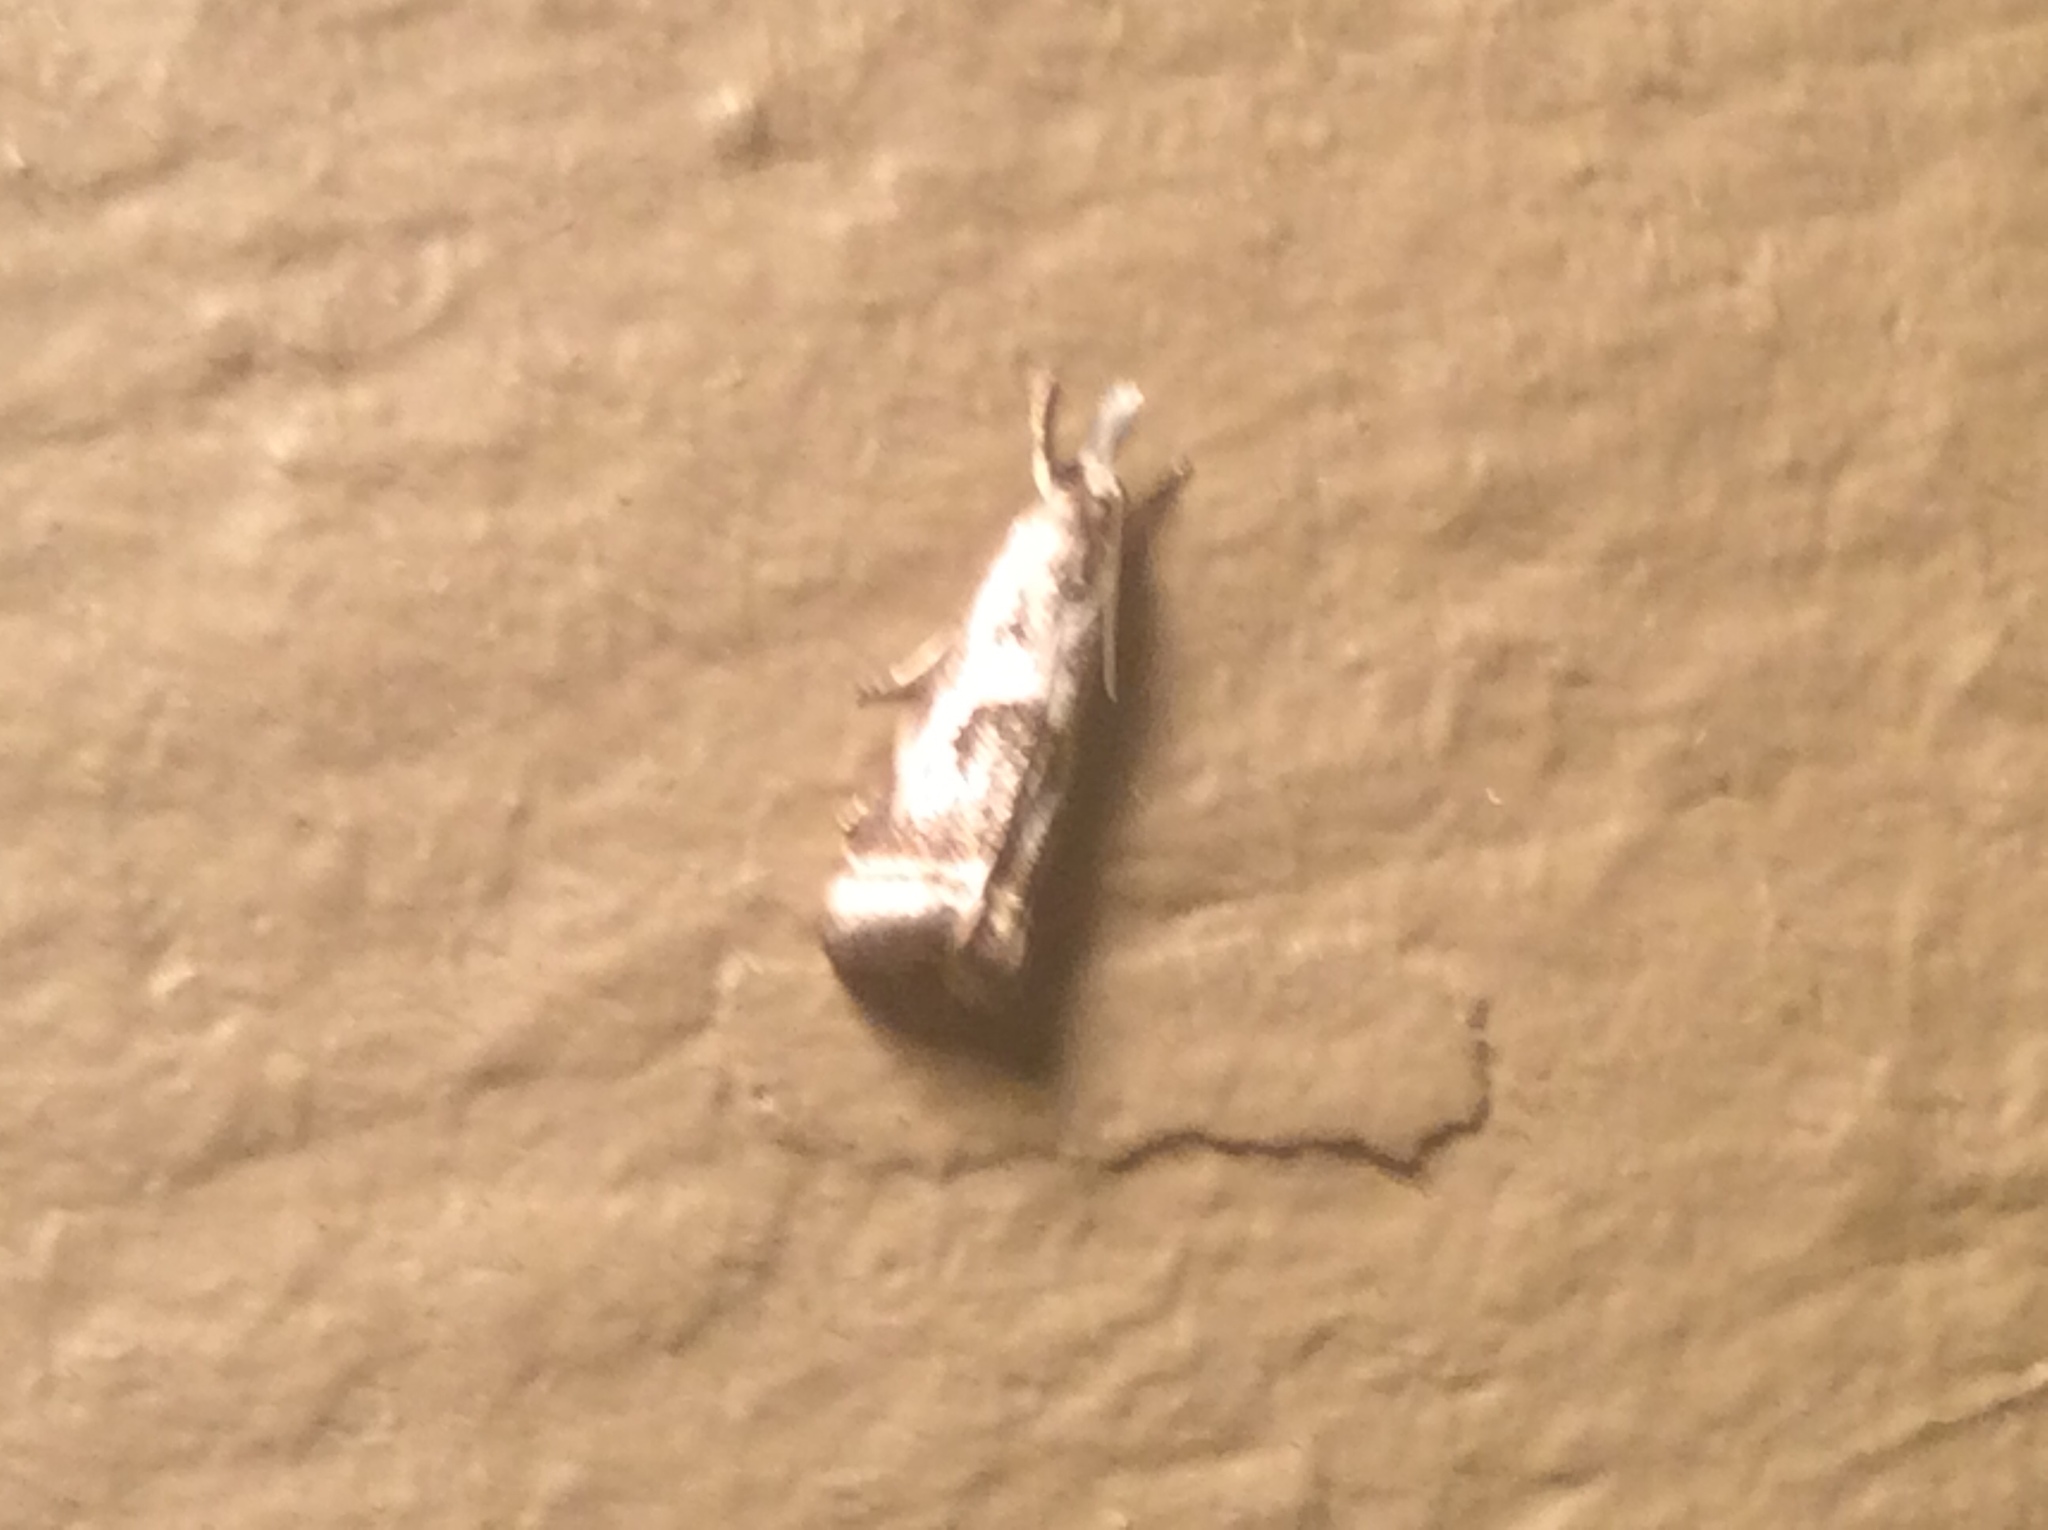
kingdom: Animalia
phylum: Arthropoda
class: Insecta
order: Lepidoptera
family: Crambidae
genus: Microcrambus
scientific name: Microcrambus elegans
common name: Elegant grass-veneer
